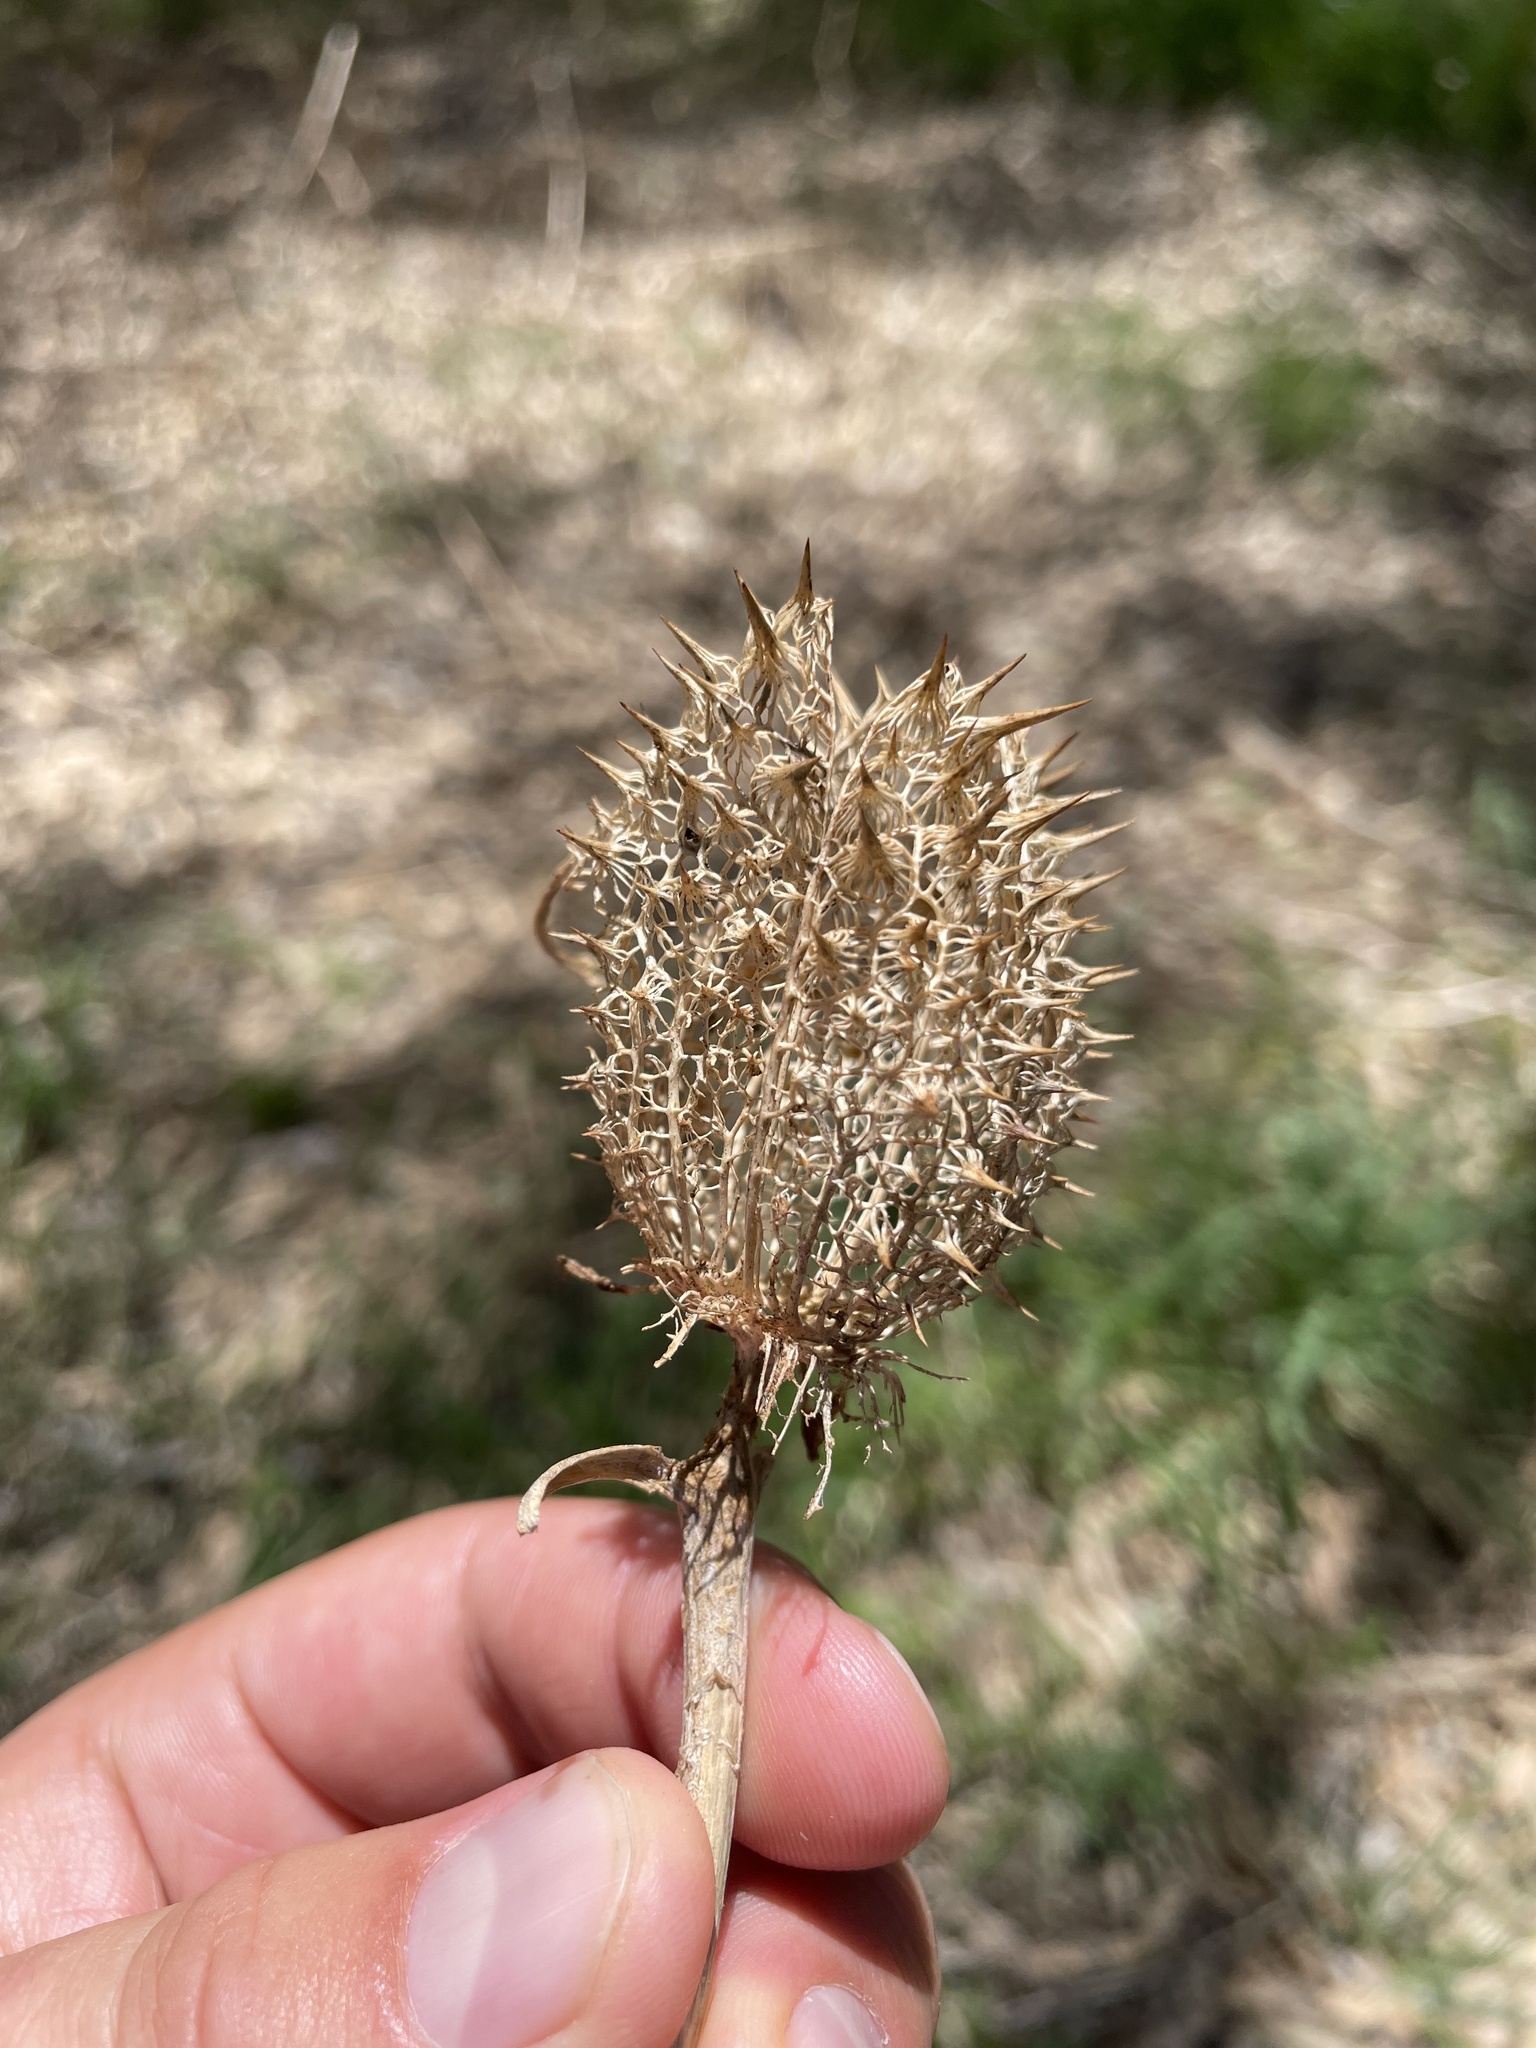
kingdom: Plantae
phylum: Tracheophyta
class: Magnoliopsida
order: Solanales
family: Solanaceae
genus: Datura
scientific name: Datura stramonium
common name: Thorn-apple
